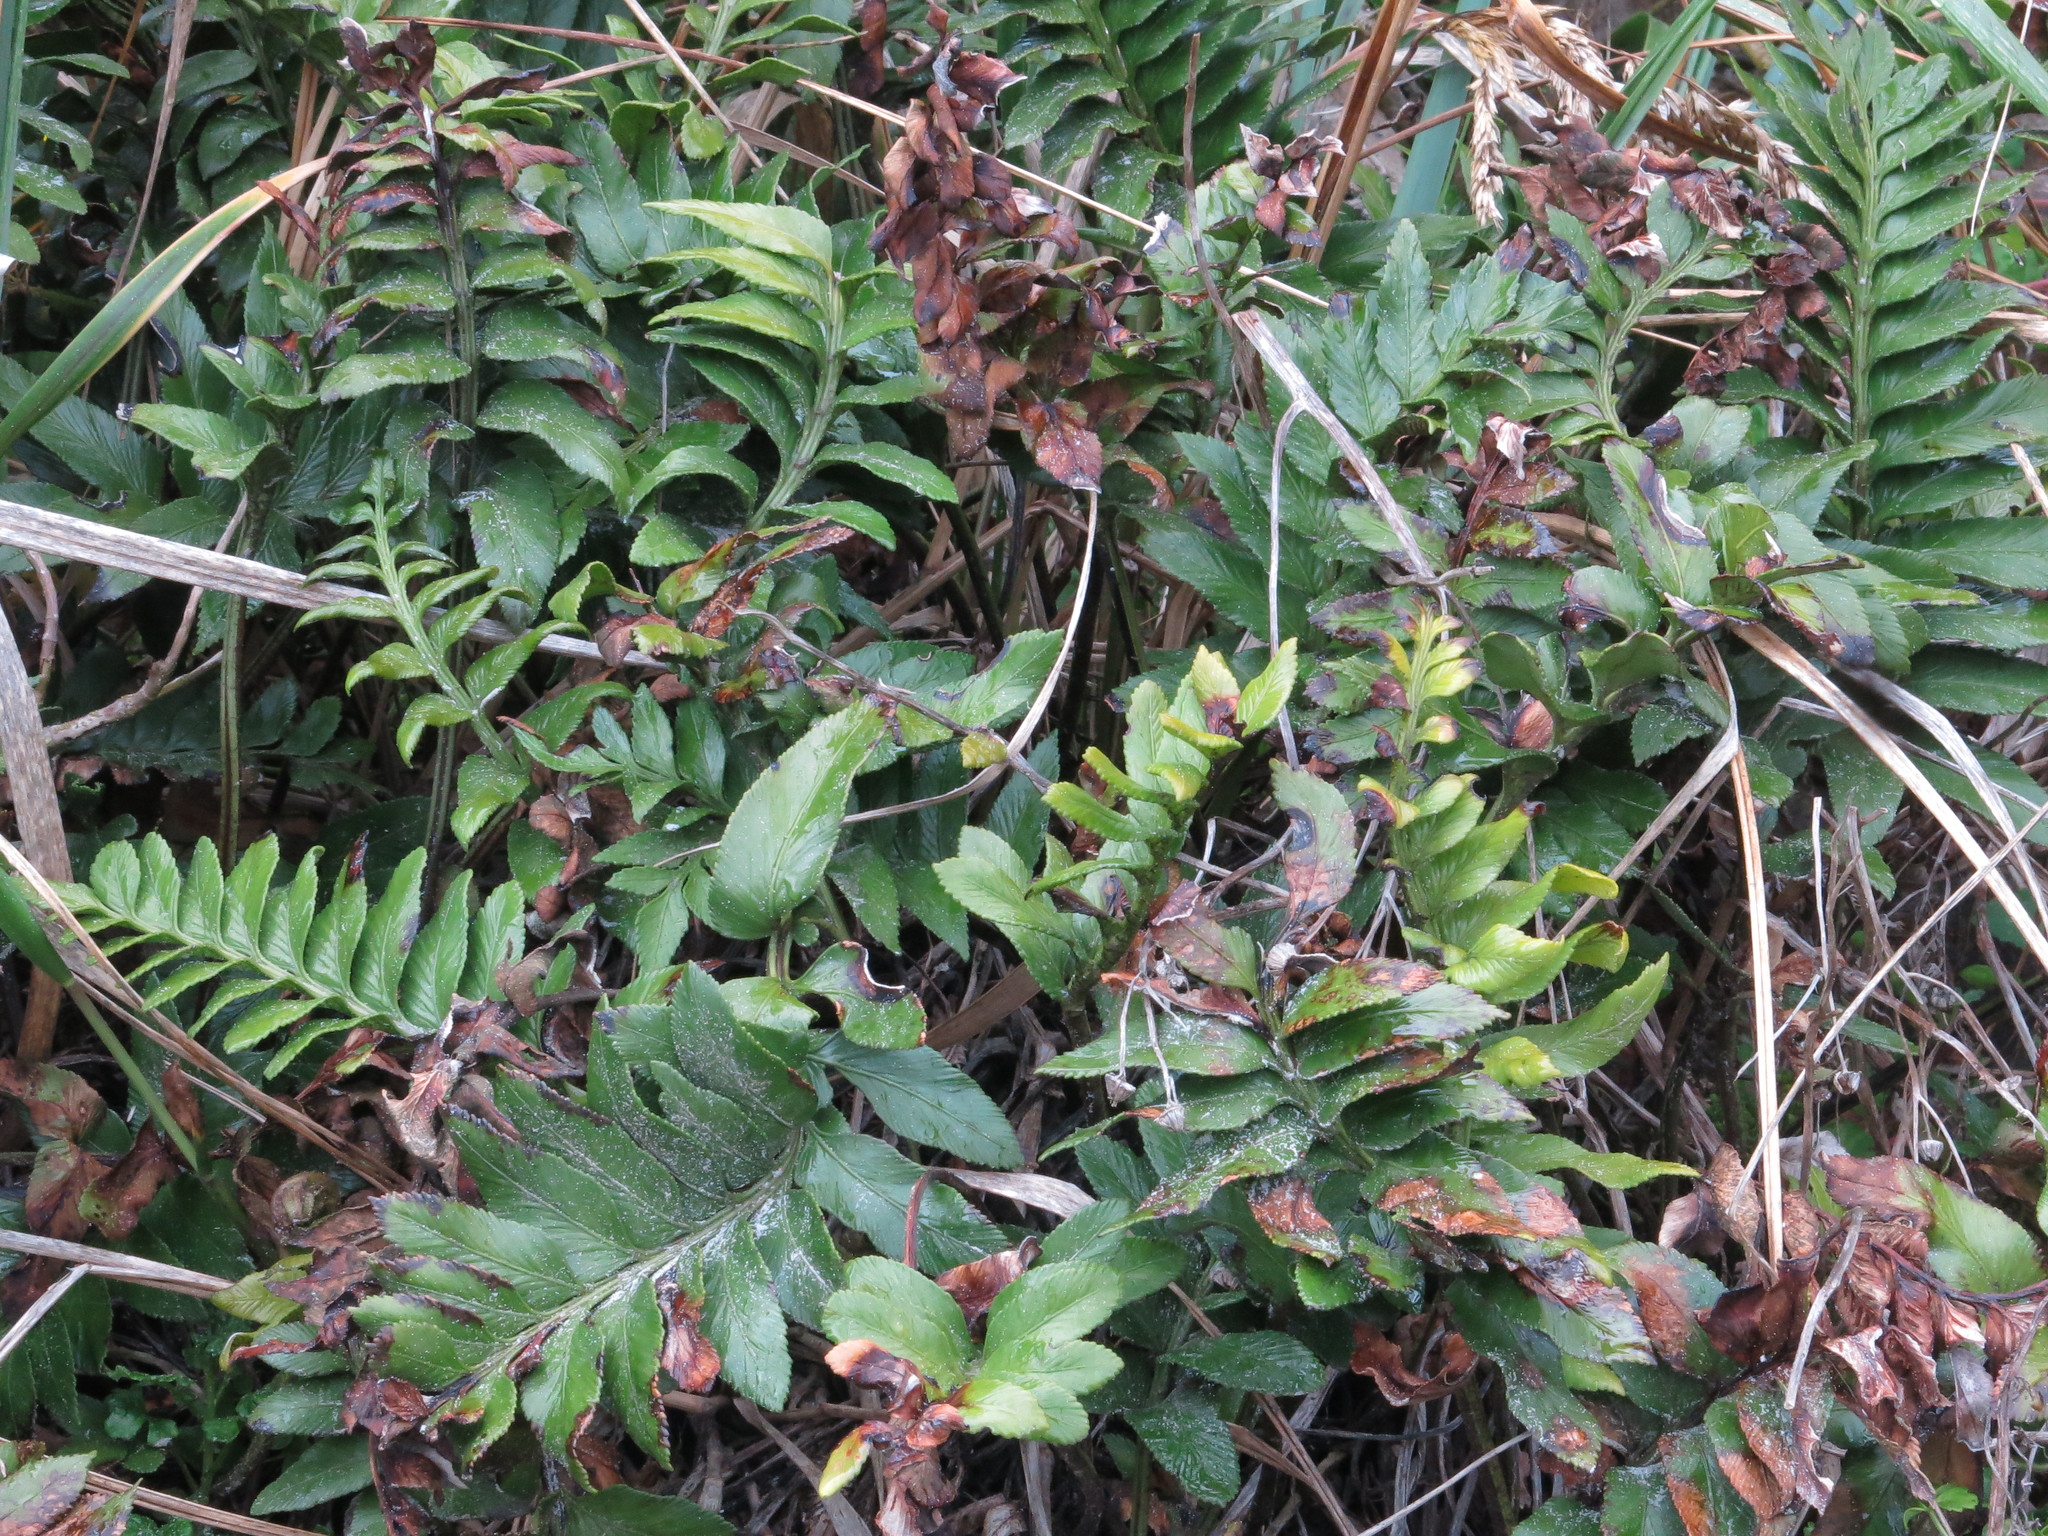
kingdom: Plantae
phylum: Tracheophyta
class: Polypodiopsida
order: Polypodiales
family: Aspleniaceae
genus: Asplenium
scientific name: Asplenium obtusatum
